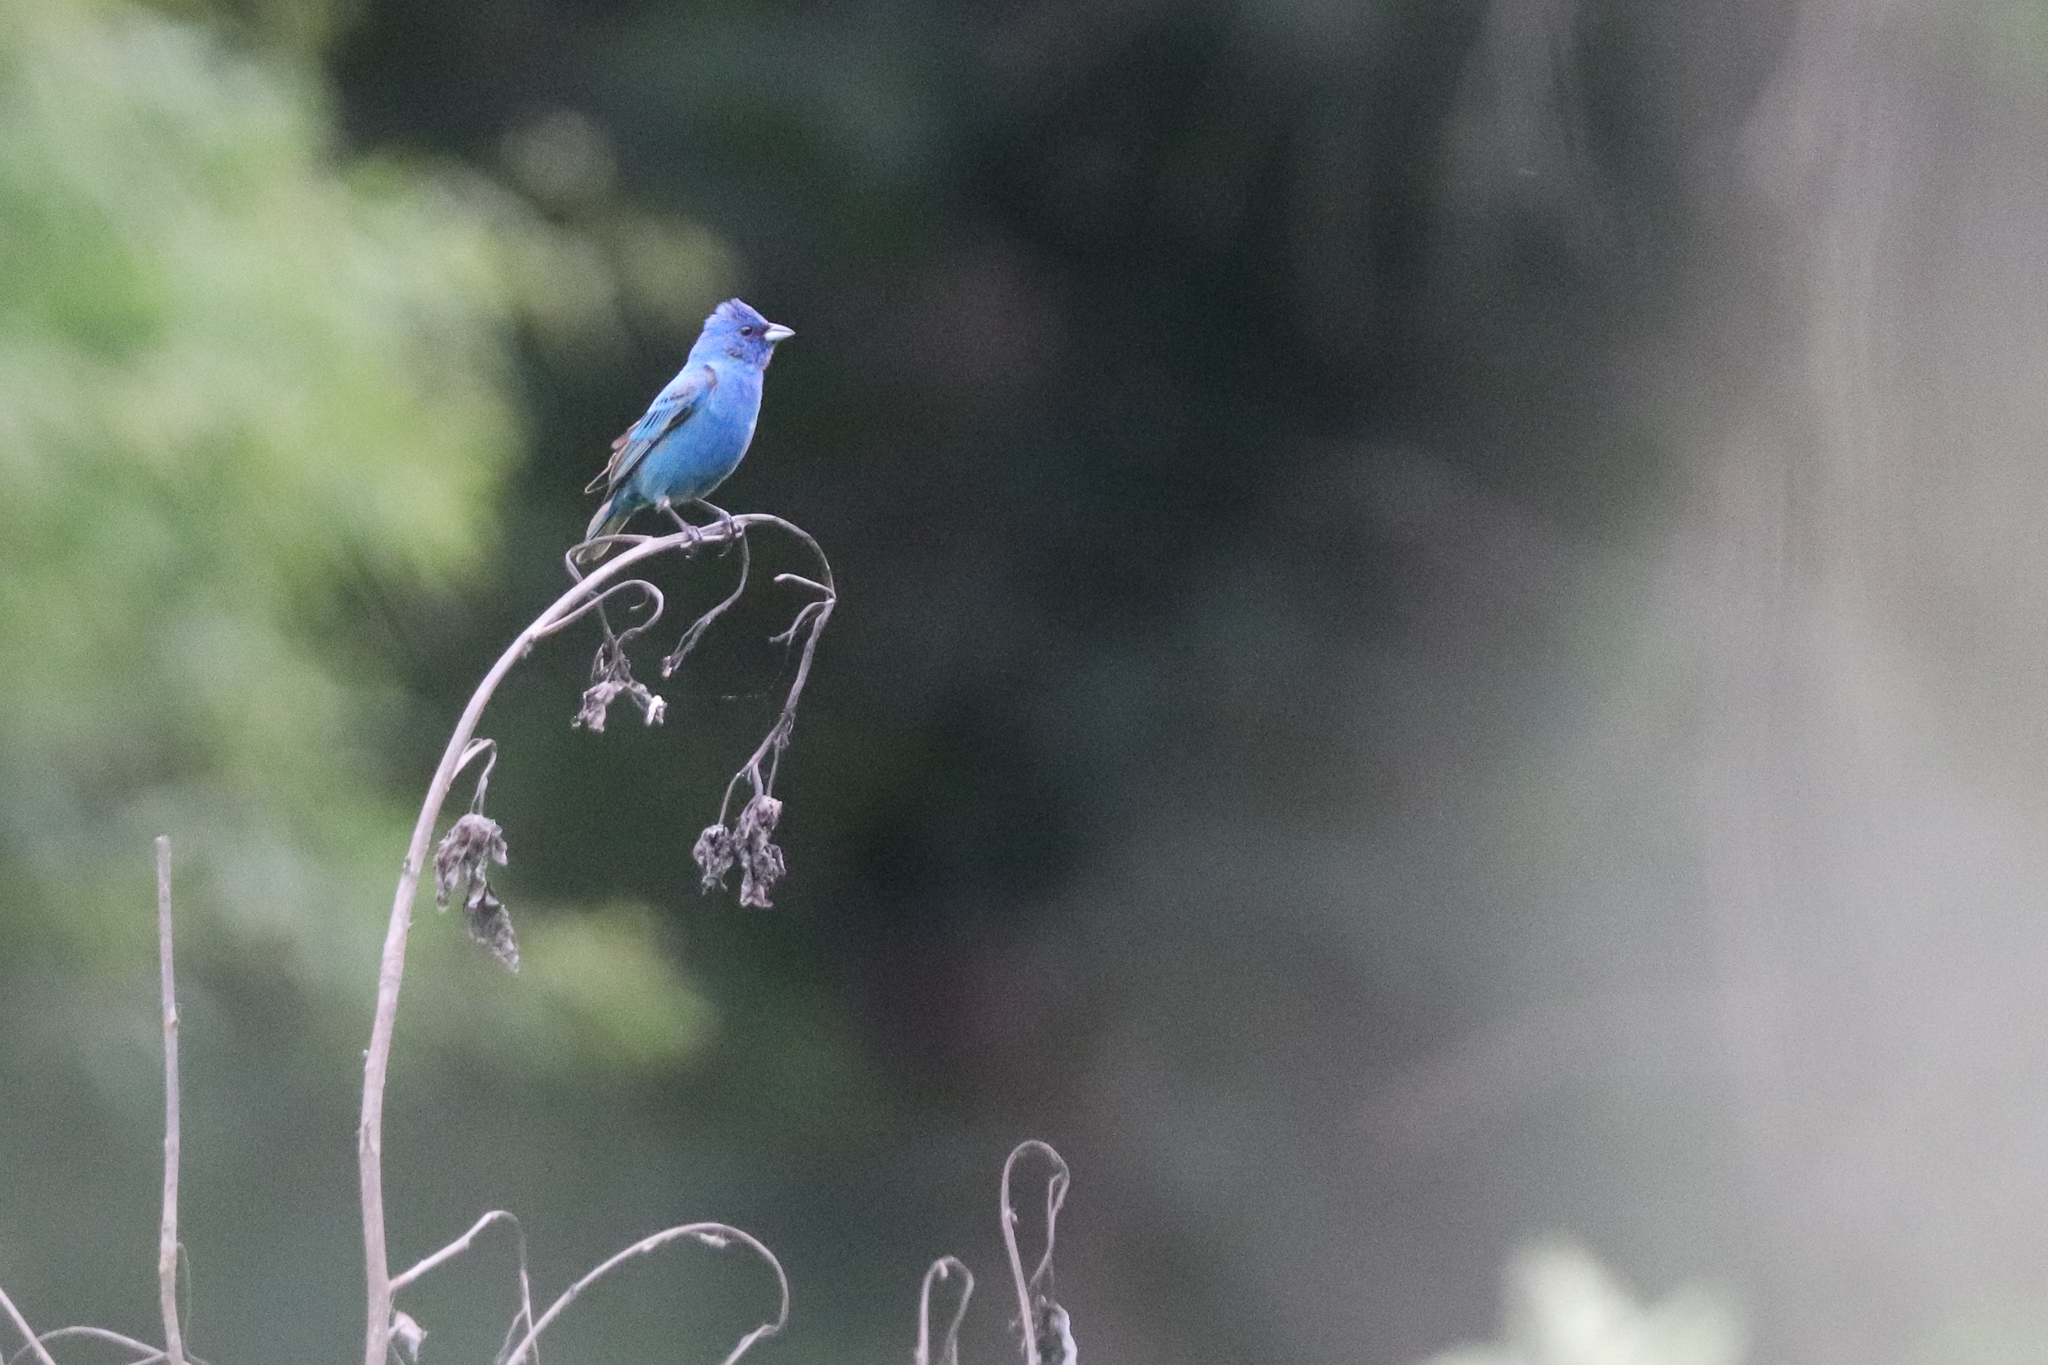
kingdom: Animalia
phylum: Chordata
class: Aves
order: Passeriformes
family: Cardinalidae
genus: Passerina
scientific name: Passerina cyanea
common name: Indigo bunting
